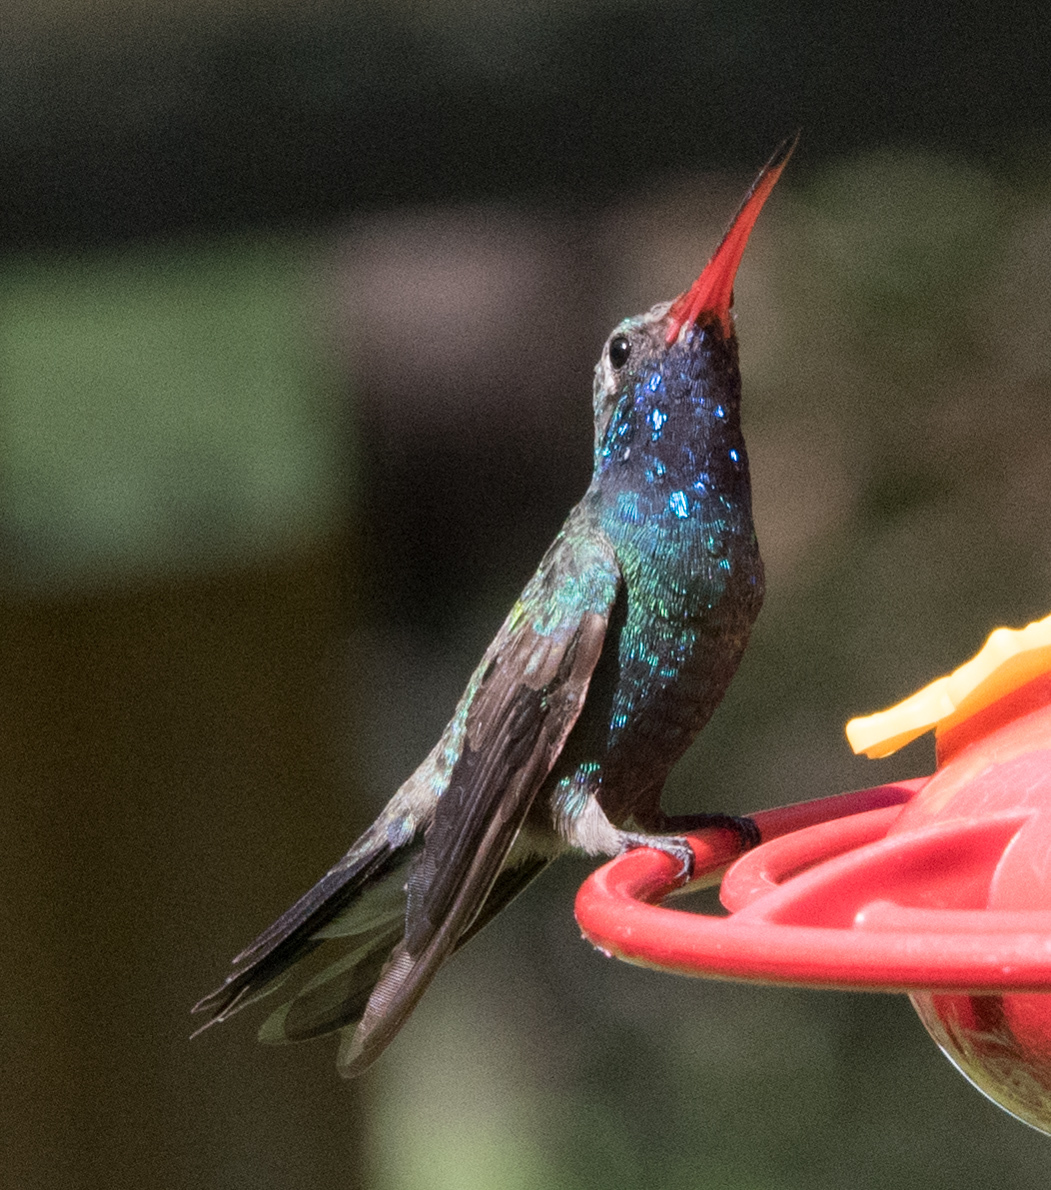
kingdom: Animalia
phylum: Chordata
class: Aves
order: Apodiformes
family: Trochilidae
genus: Cynanthus
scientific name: Cynanthus latirostris
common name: Broad-billed hummingbird
